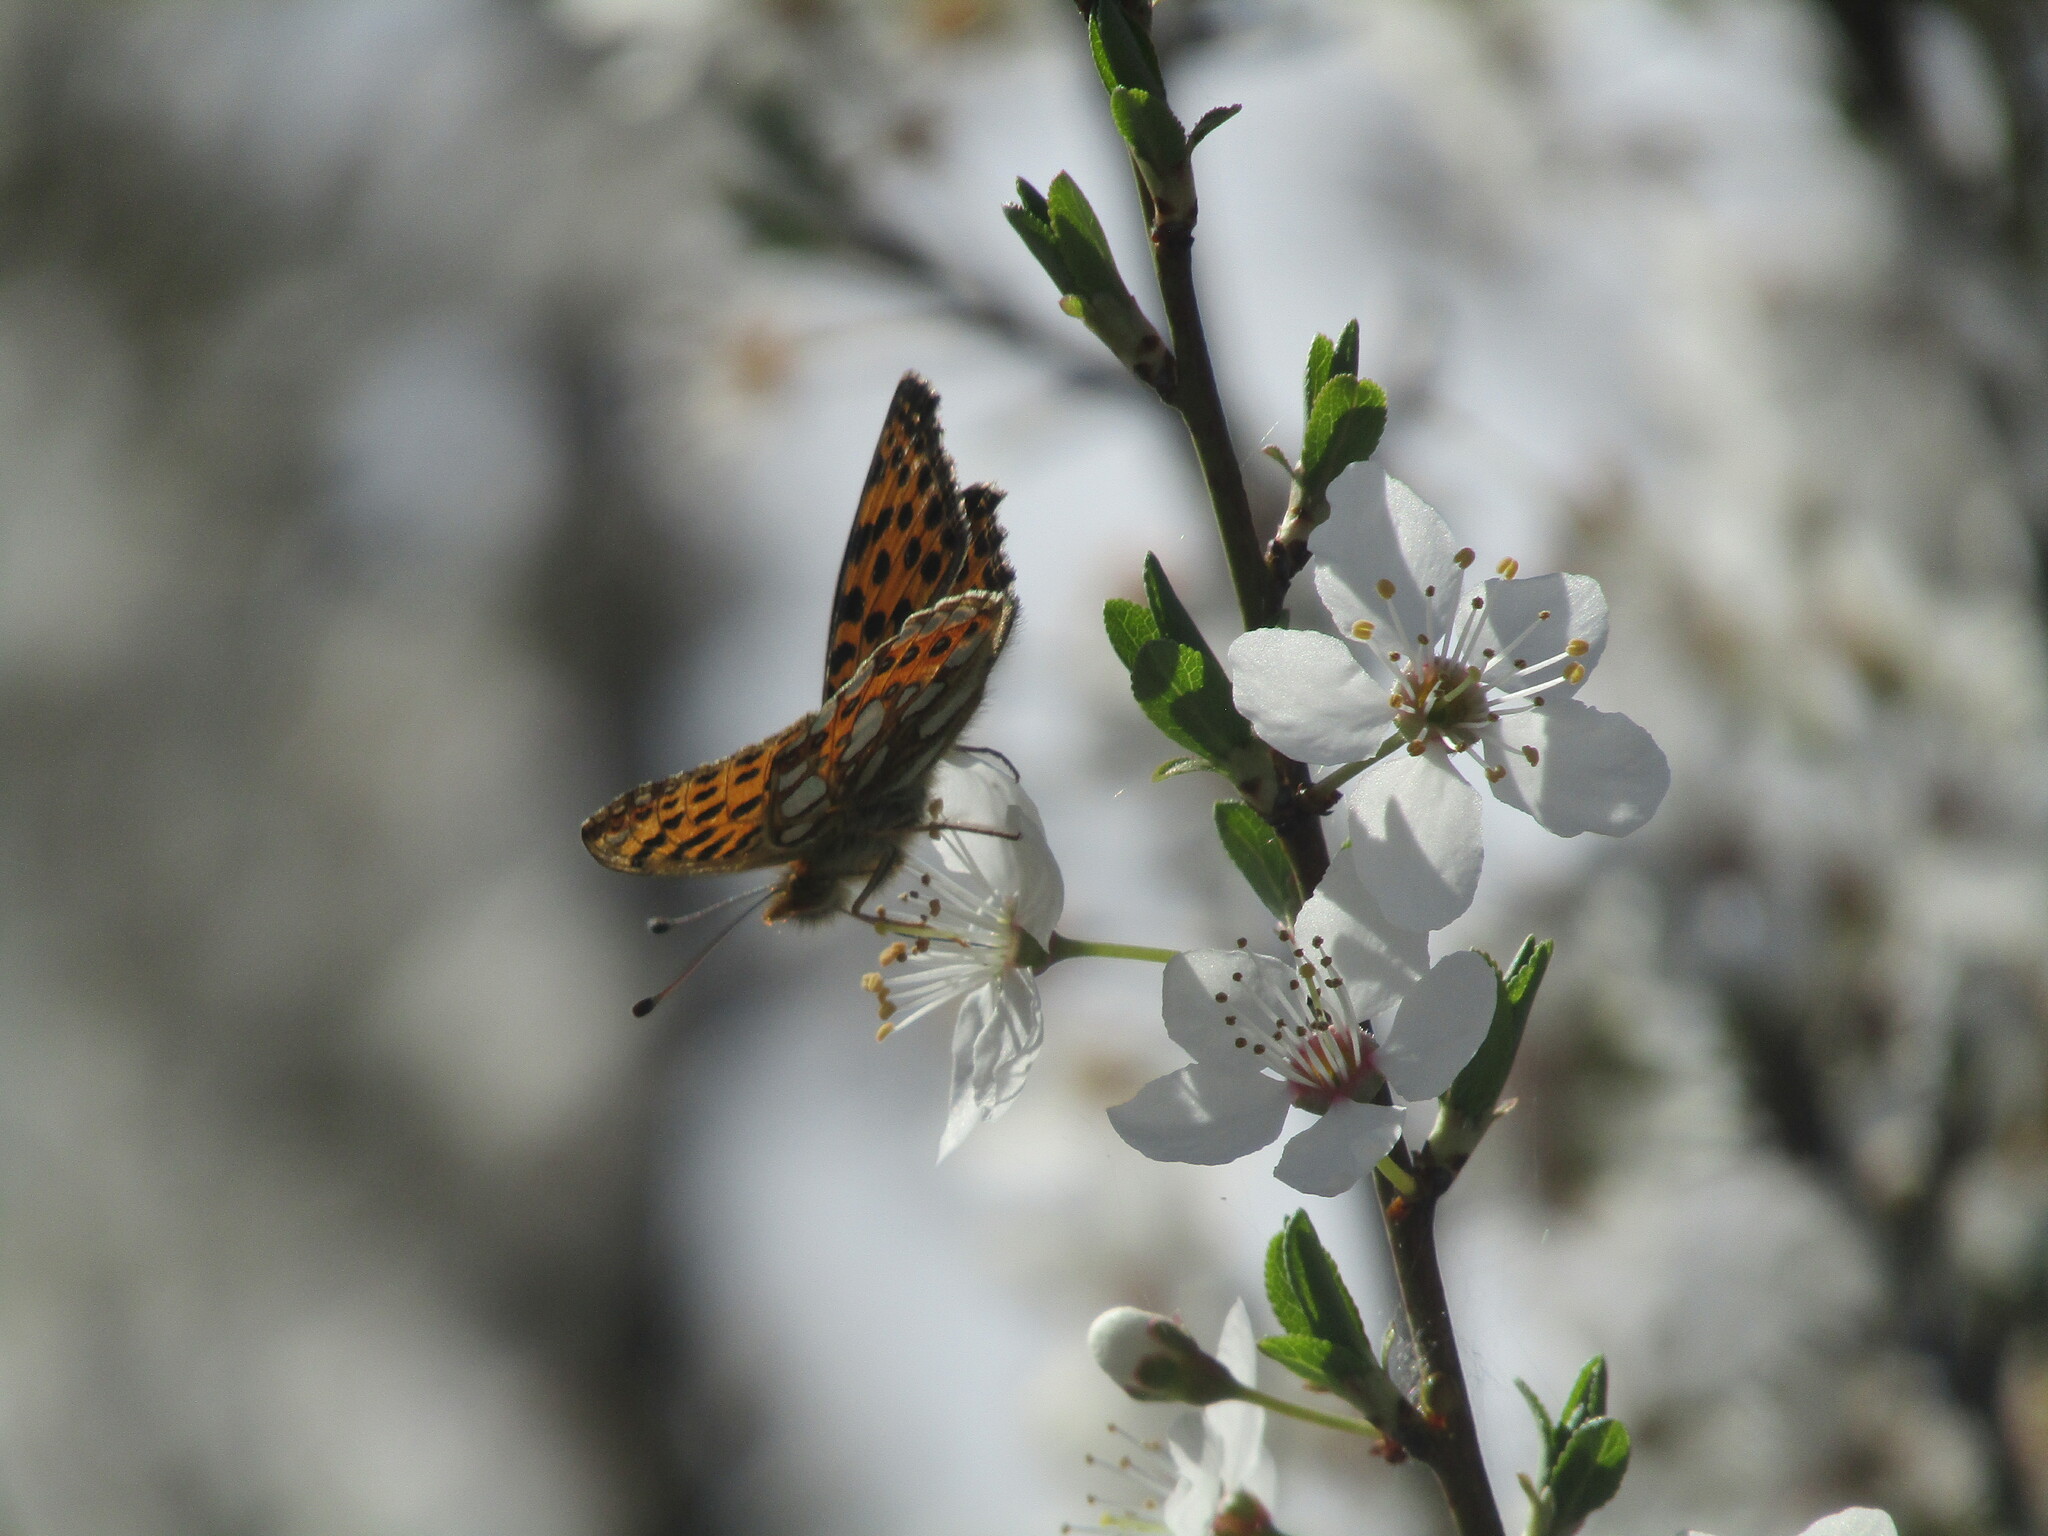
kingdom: Animalia
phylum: Arthropoda
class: Insecta
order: Lepidoptera
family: Nymphalidae
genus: Issoria
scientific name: Issoria lathonia
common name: Queen of spain fritillary
